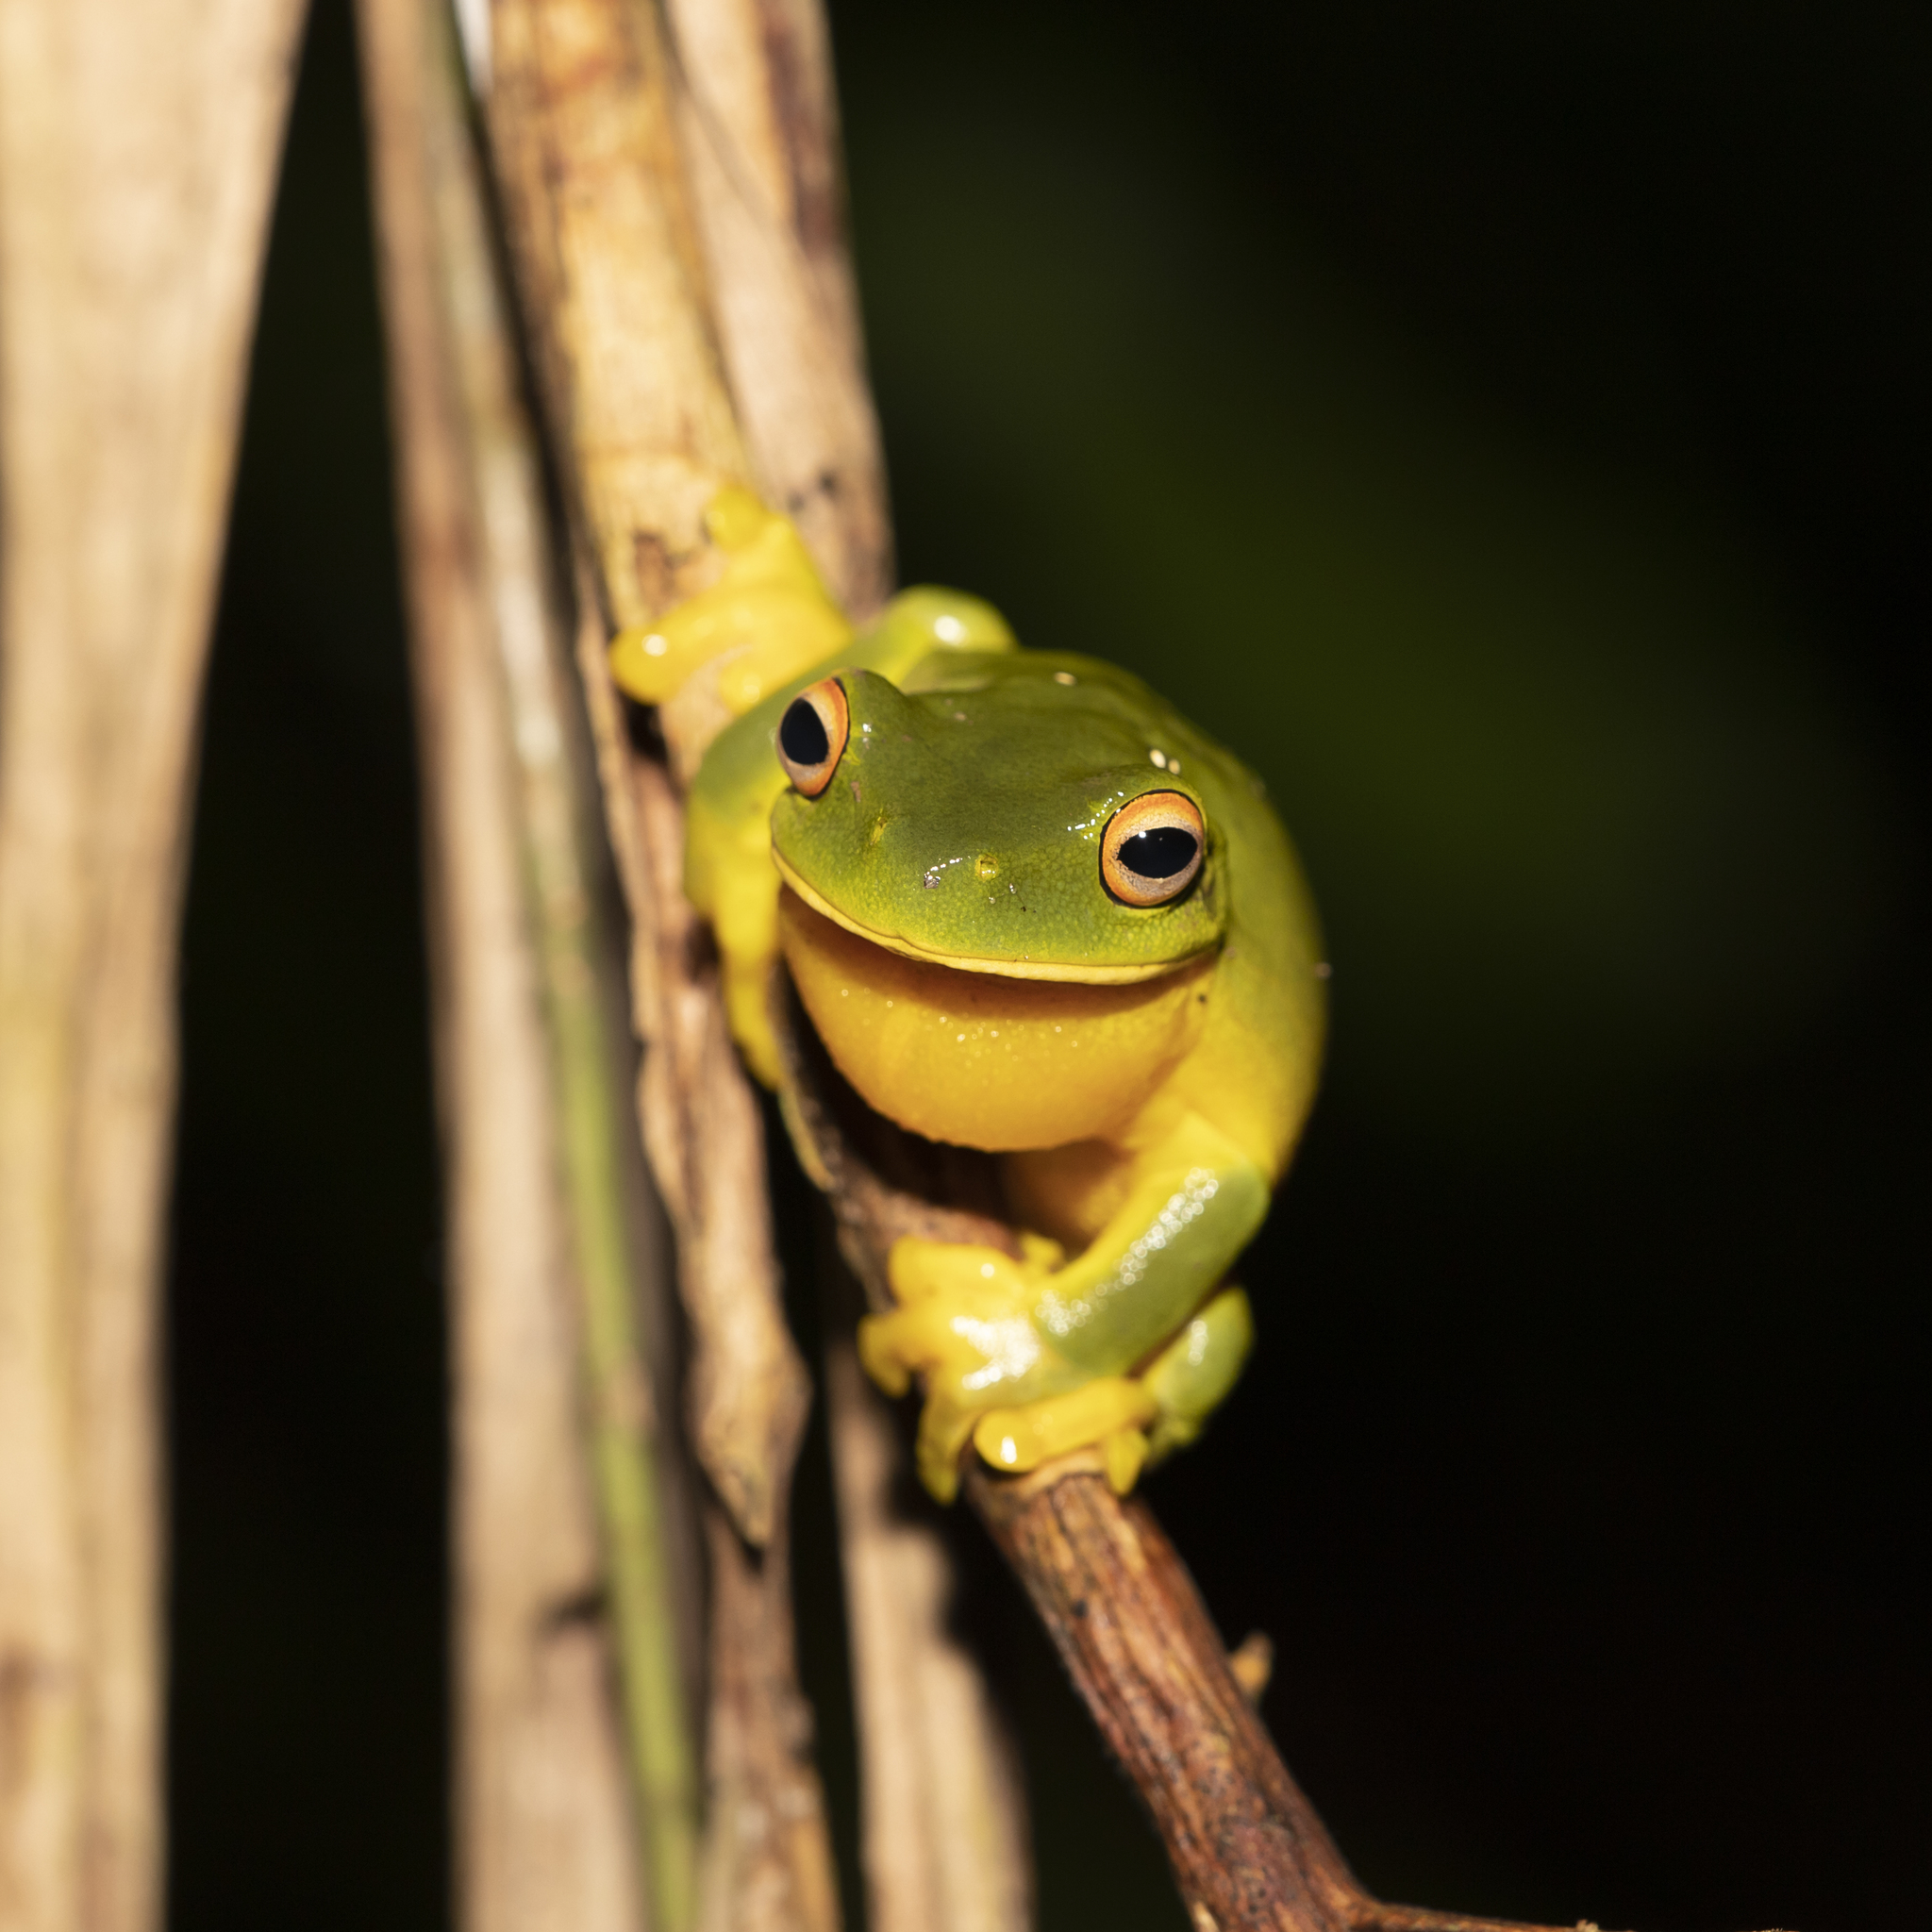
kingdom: Animalia
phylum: Chordata
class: Amphibia
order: Anura
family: Pelodryadidae
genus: Ranoidea
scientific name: Ranoidea xanthomera
